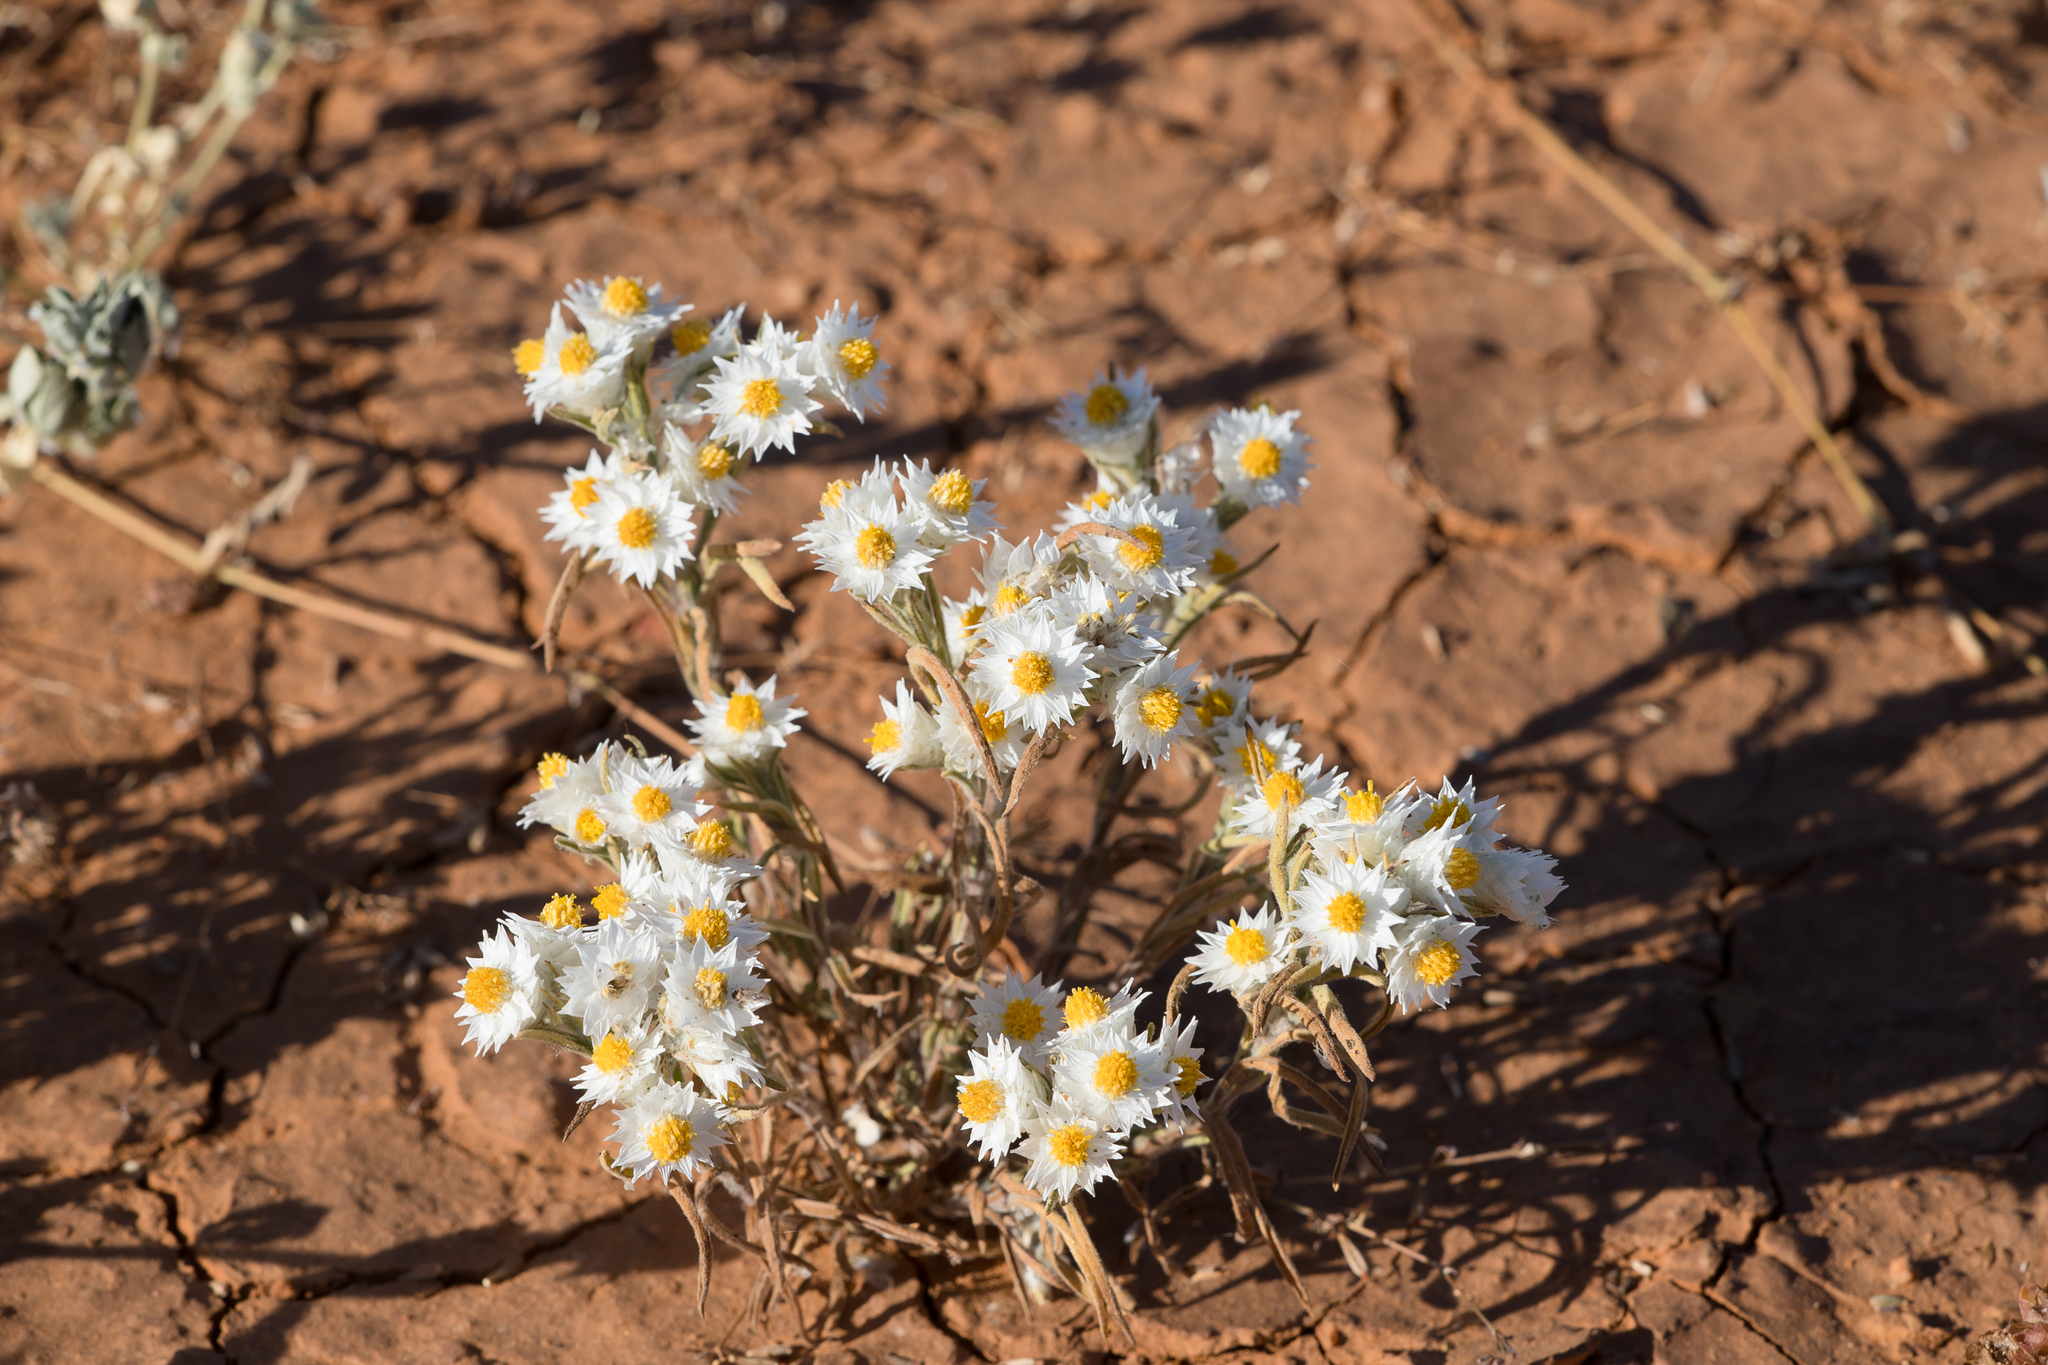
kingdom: Plantae
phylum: Tracheophyta
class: Magnoliopsida
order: Asterales
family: Asteraceae
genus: Rhodanthe
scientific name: Rhodanthe floribunda
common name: Flowery sunray
